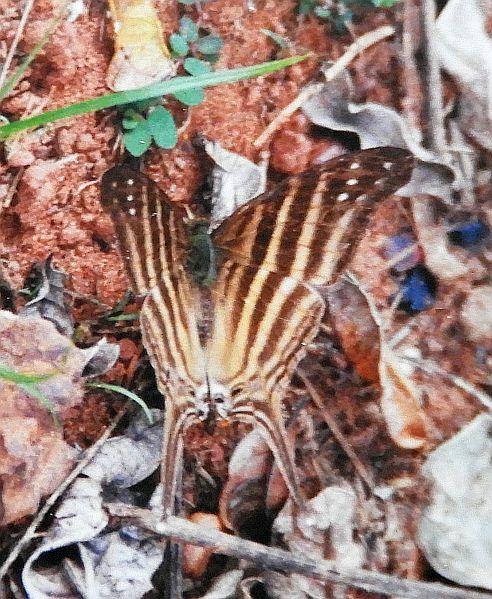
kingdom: Animalia
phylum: Arthropoda
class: Insecta
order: Lepidoptera
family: Nymphalidae
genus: Marpesia
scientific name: Marpesia chiron
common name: Many-banded daggerwing
